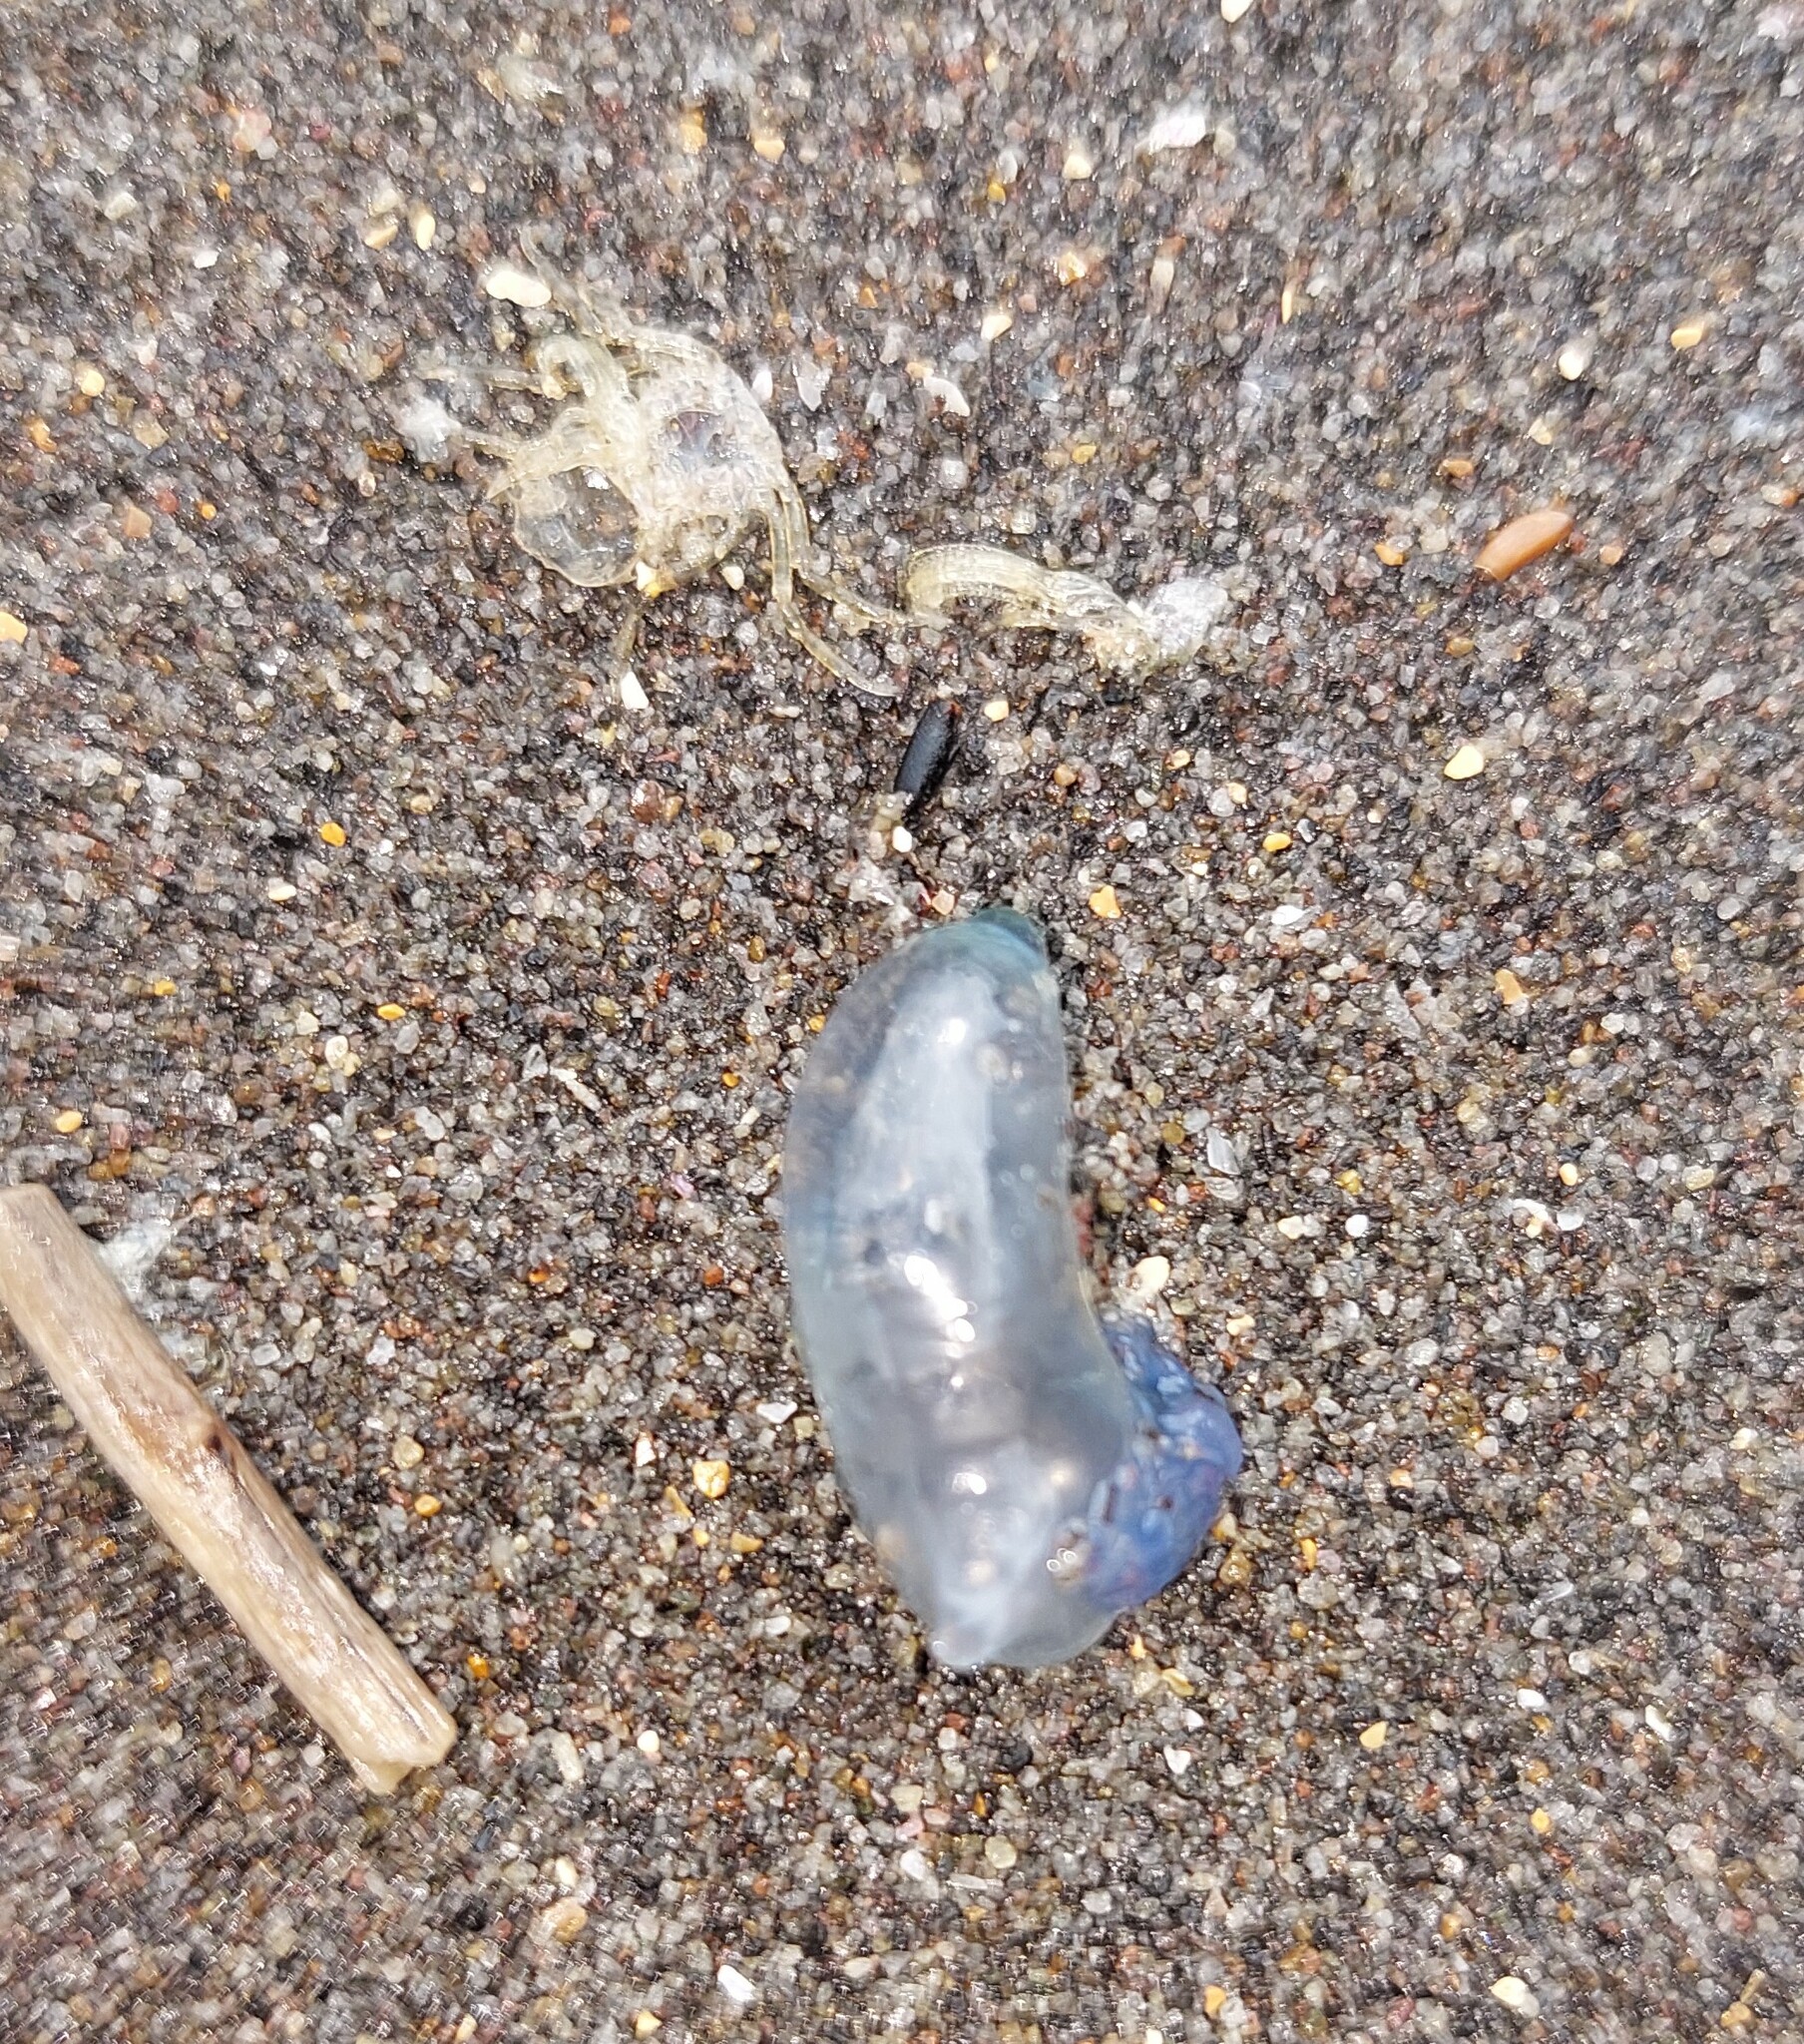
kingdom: Animalia
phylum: Cnidaria
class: Hydrozoa
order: Siphonophorae
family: Physaliidae
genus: Physalia
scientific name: Physalia physalis
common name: Portuguese man-of-war
